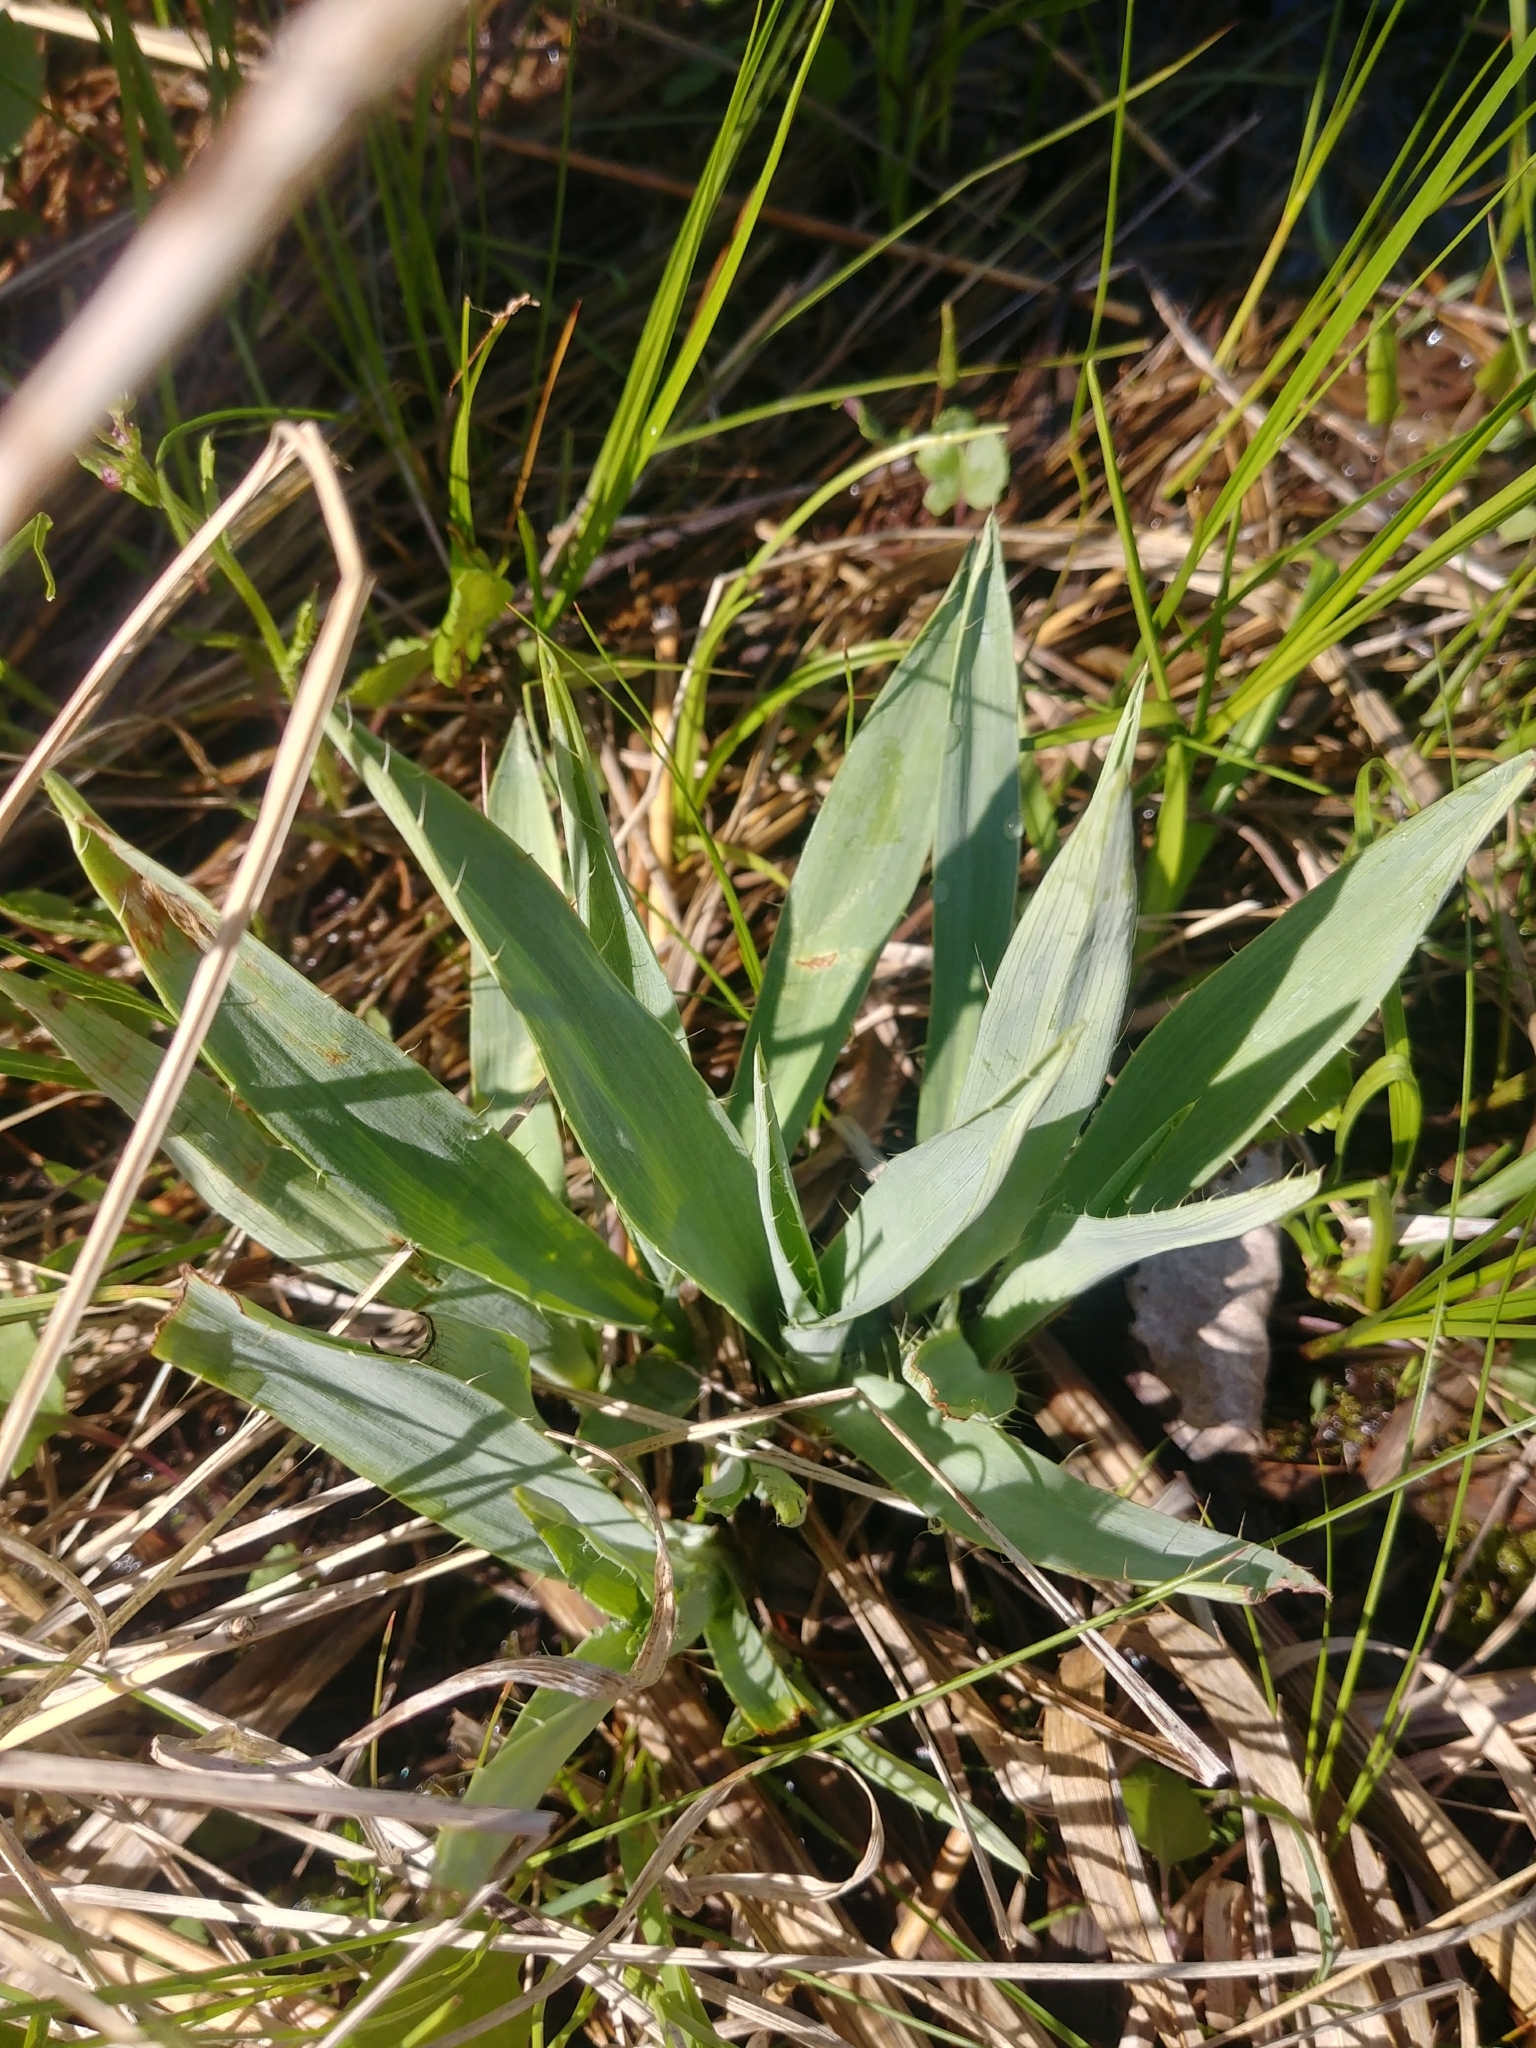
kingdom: Plantae
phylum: Tracheophyta
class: Magnoliopsida
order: Apiales
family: Apiaceae
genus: Eryngium
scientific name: Eryngium yuccifolium
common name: Button eryngo
